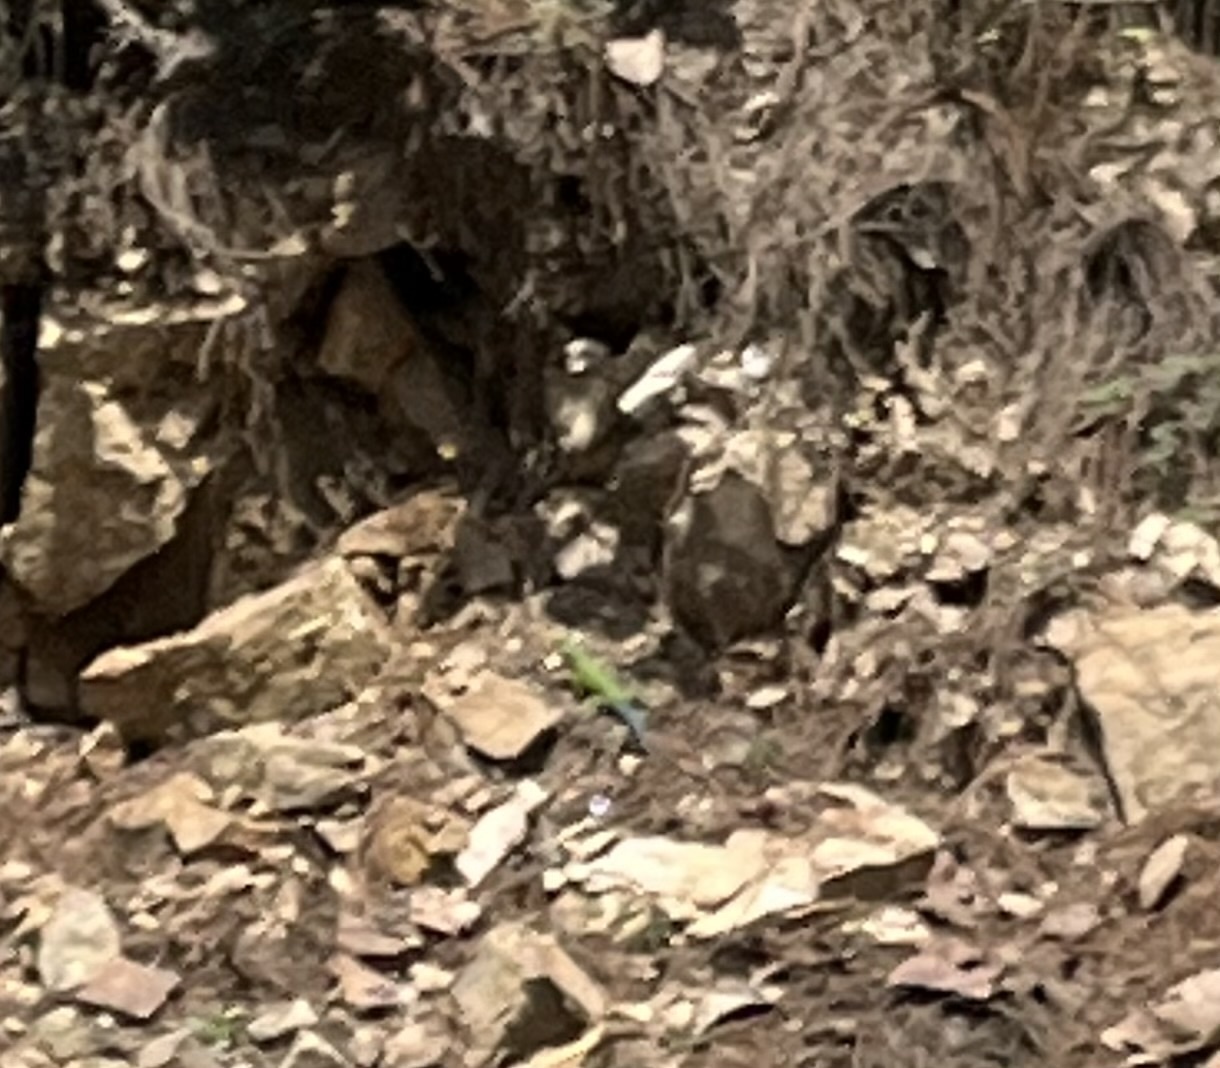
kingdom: Animalia
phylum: Chordata
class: Squamata
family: Phrynosomatidae
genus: Sceloporus
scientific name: Sceloporus formosus
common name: Mexican emerald spiny lizard
